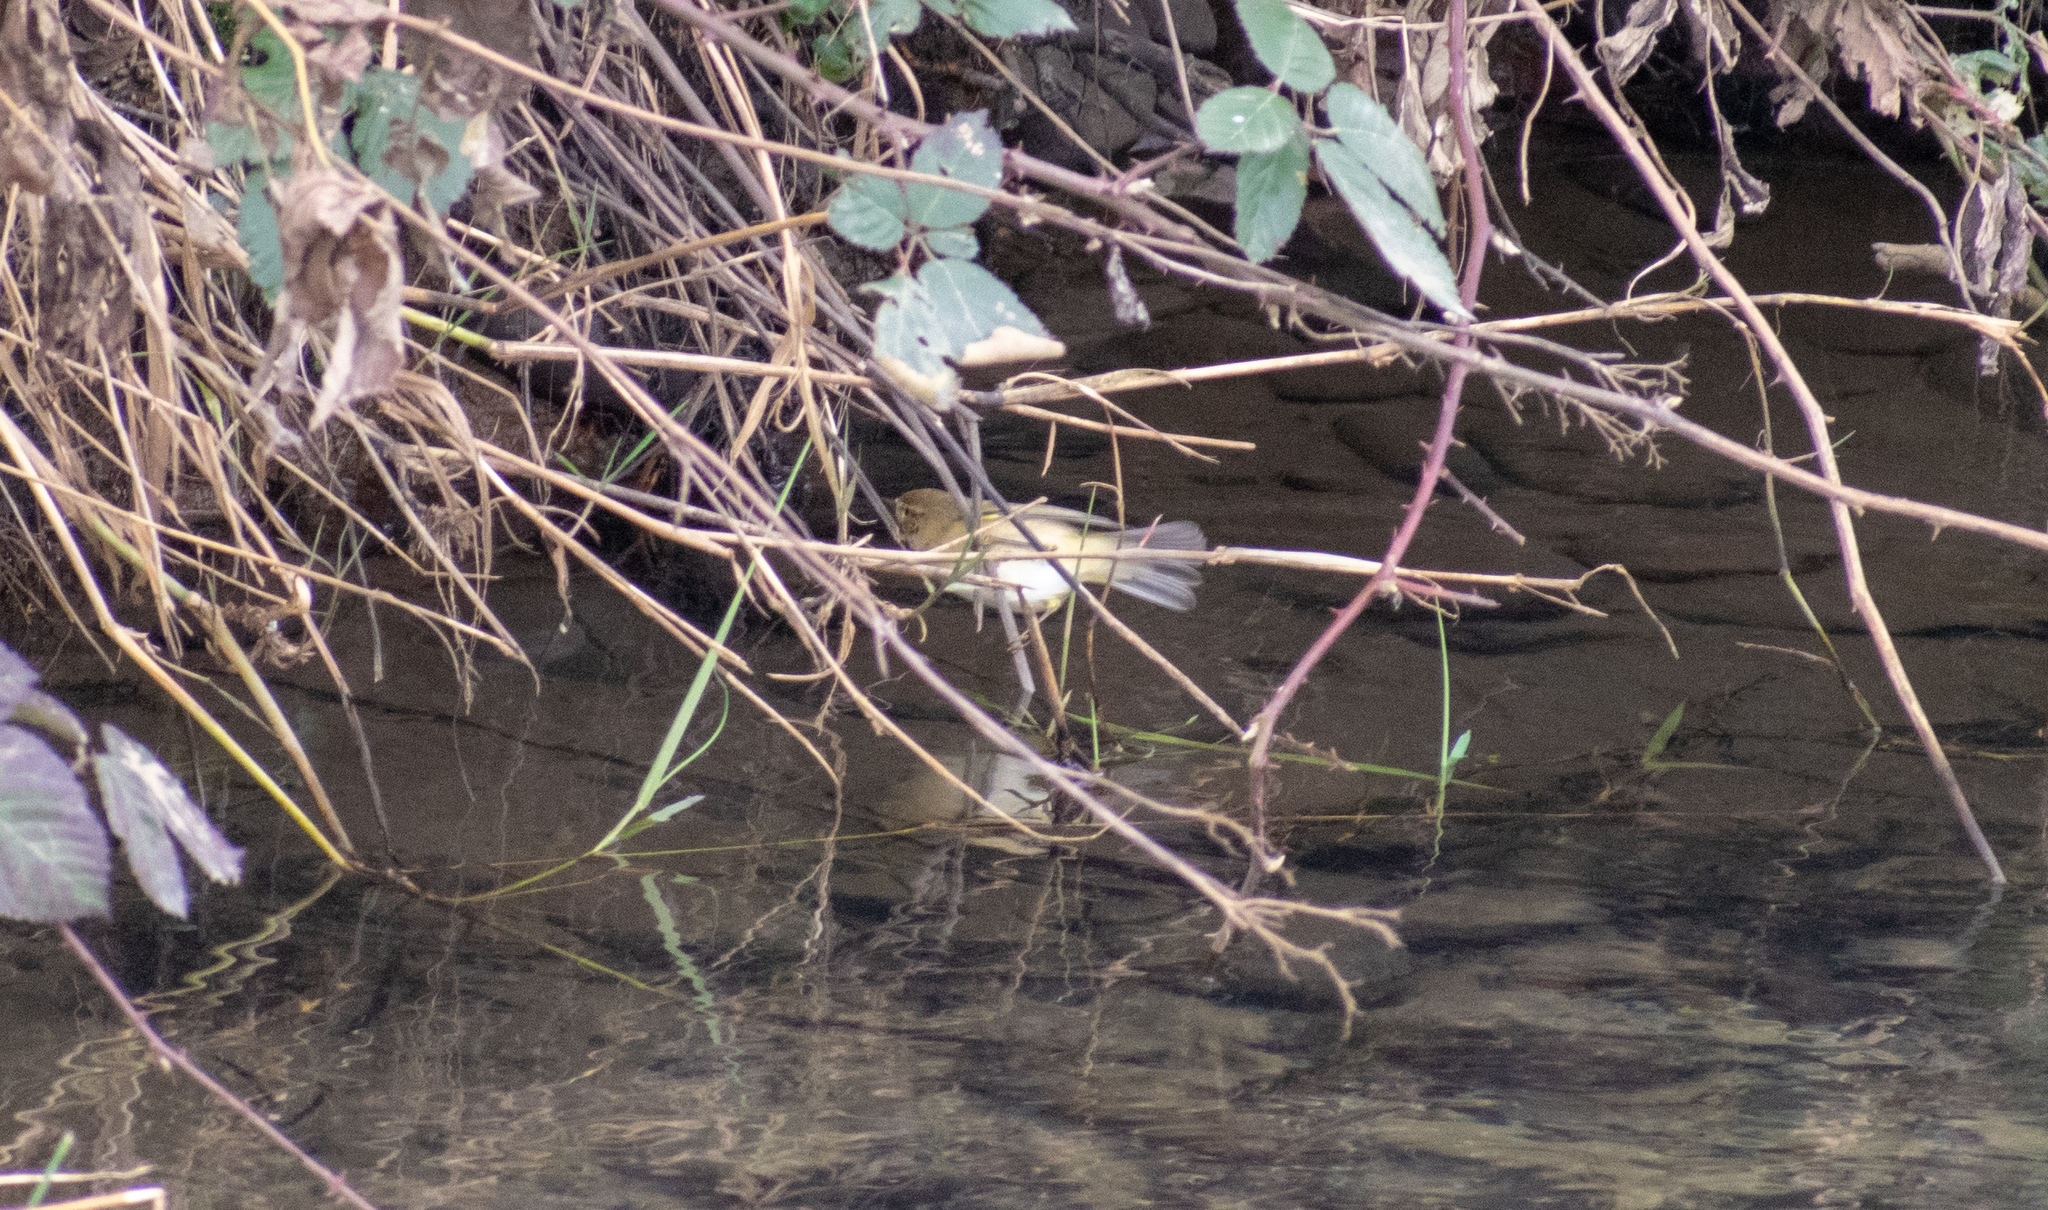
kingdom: Animalia
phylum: Chordata
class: Aves
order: Passeriformes
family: Phylloscopidae
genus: Phylloscopus
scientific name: Phylloscopus collybita
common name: Common chiffchaff
